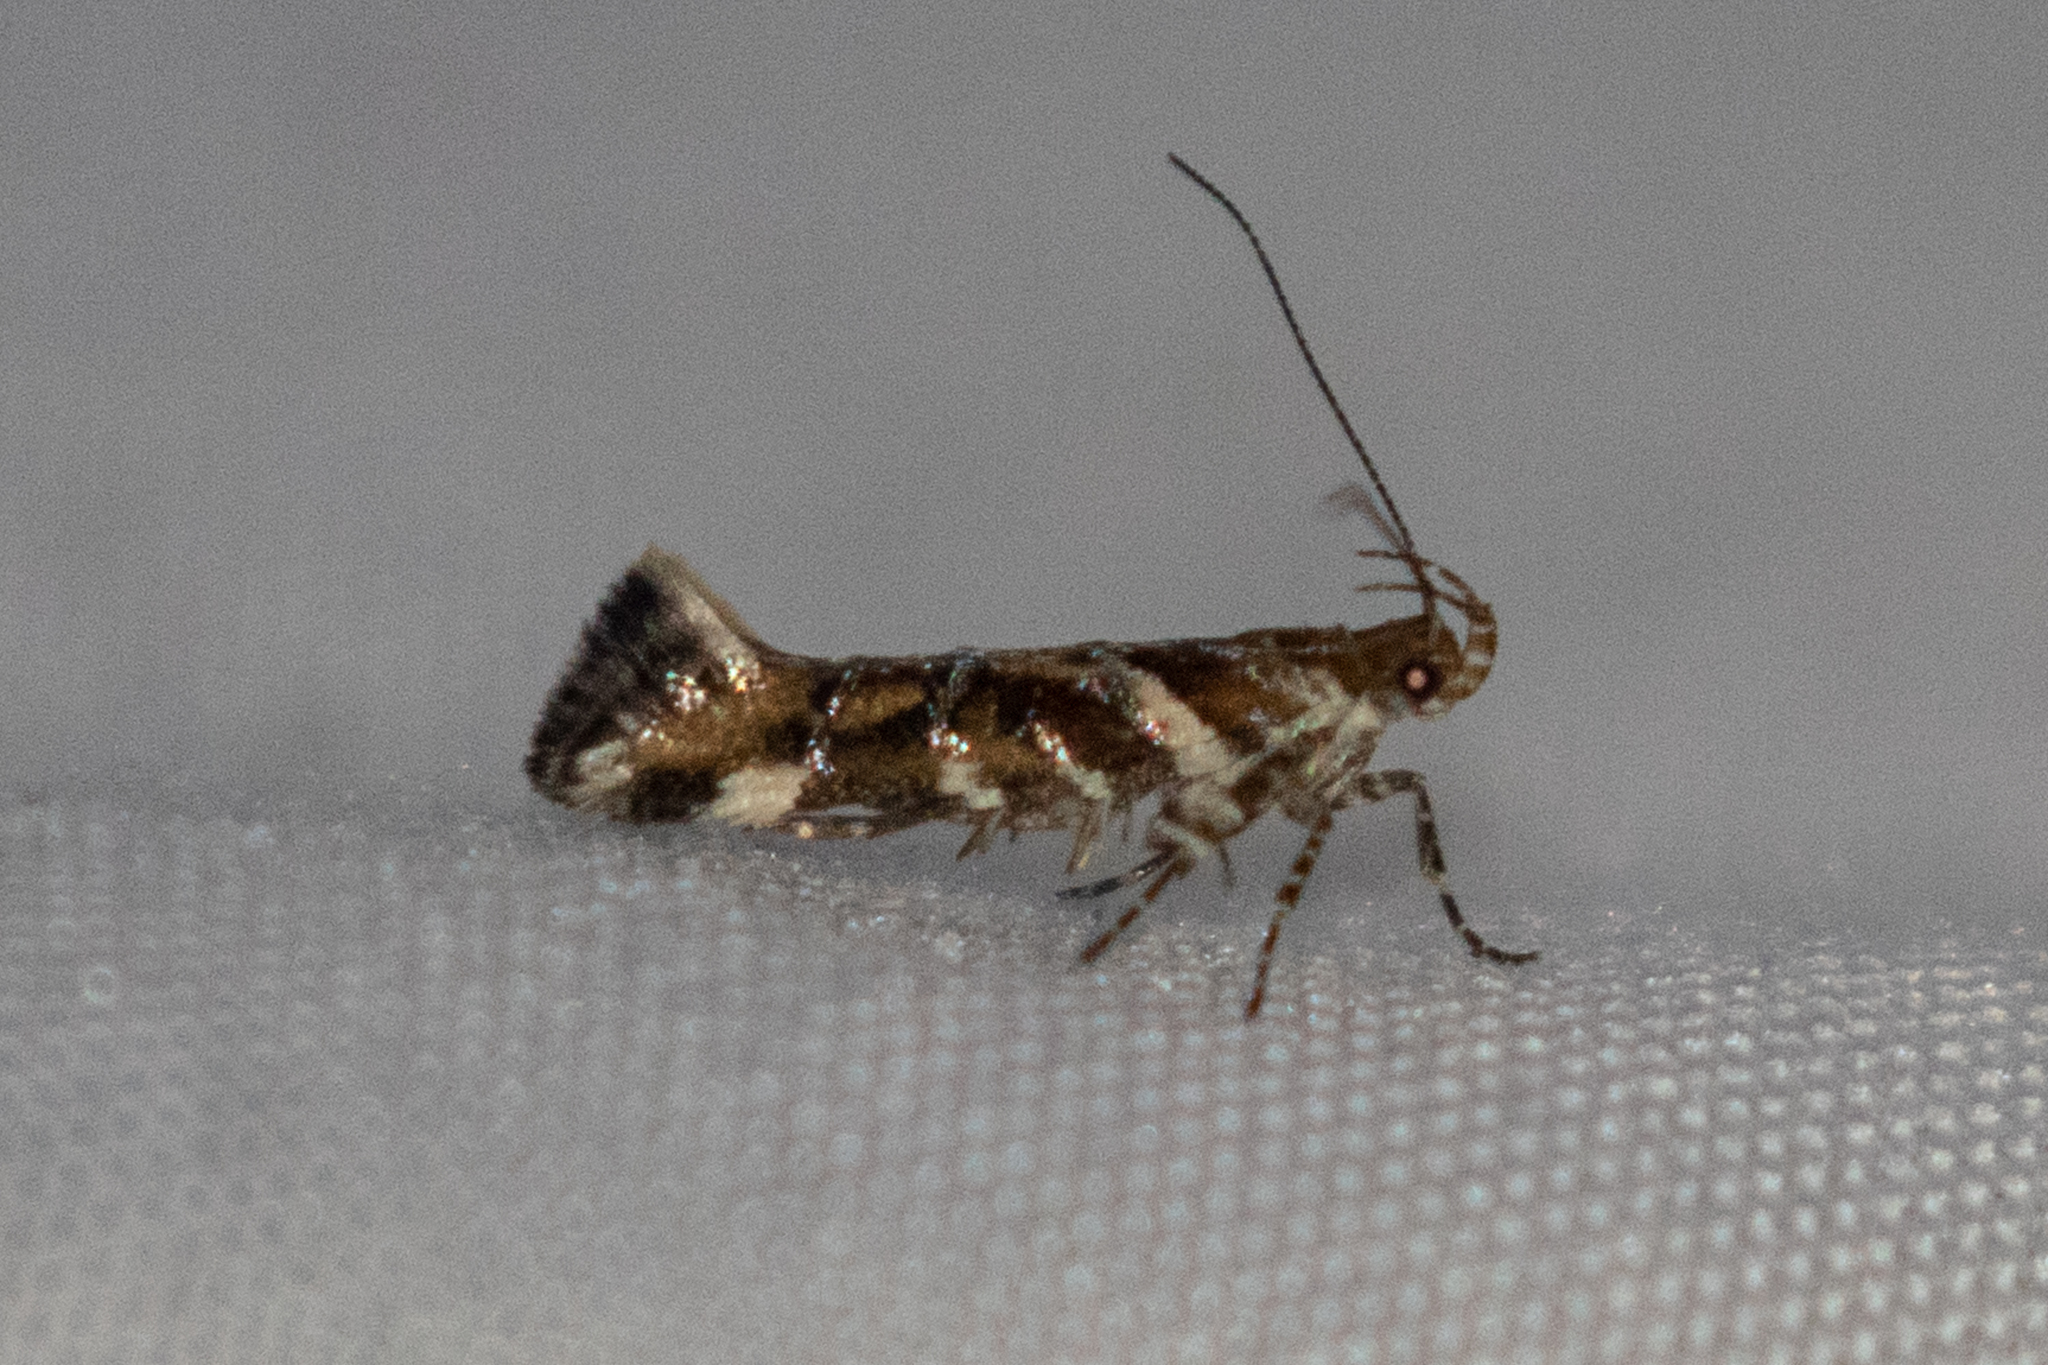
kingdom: Animalia
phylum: Arthropoda
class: Insecta
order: Lepidoptera
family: Gelechiidae
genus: Aristotelia
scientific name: Aristotelia argentifera
